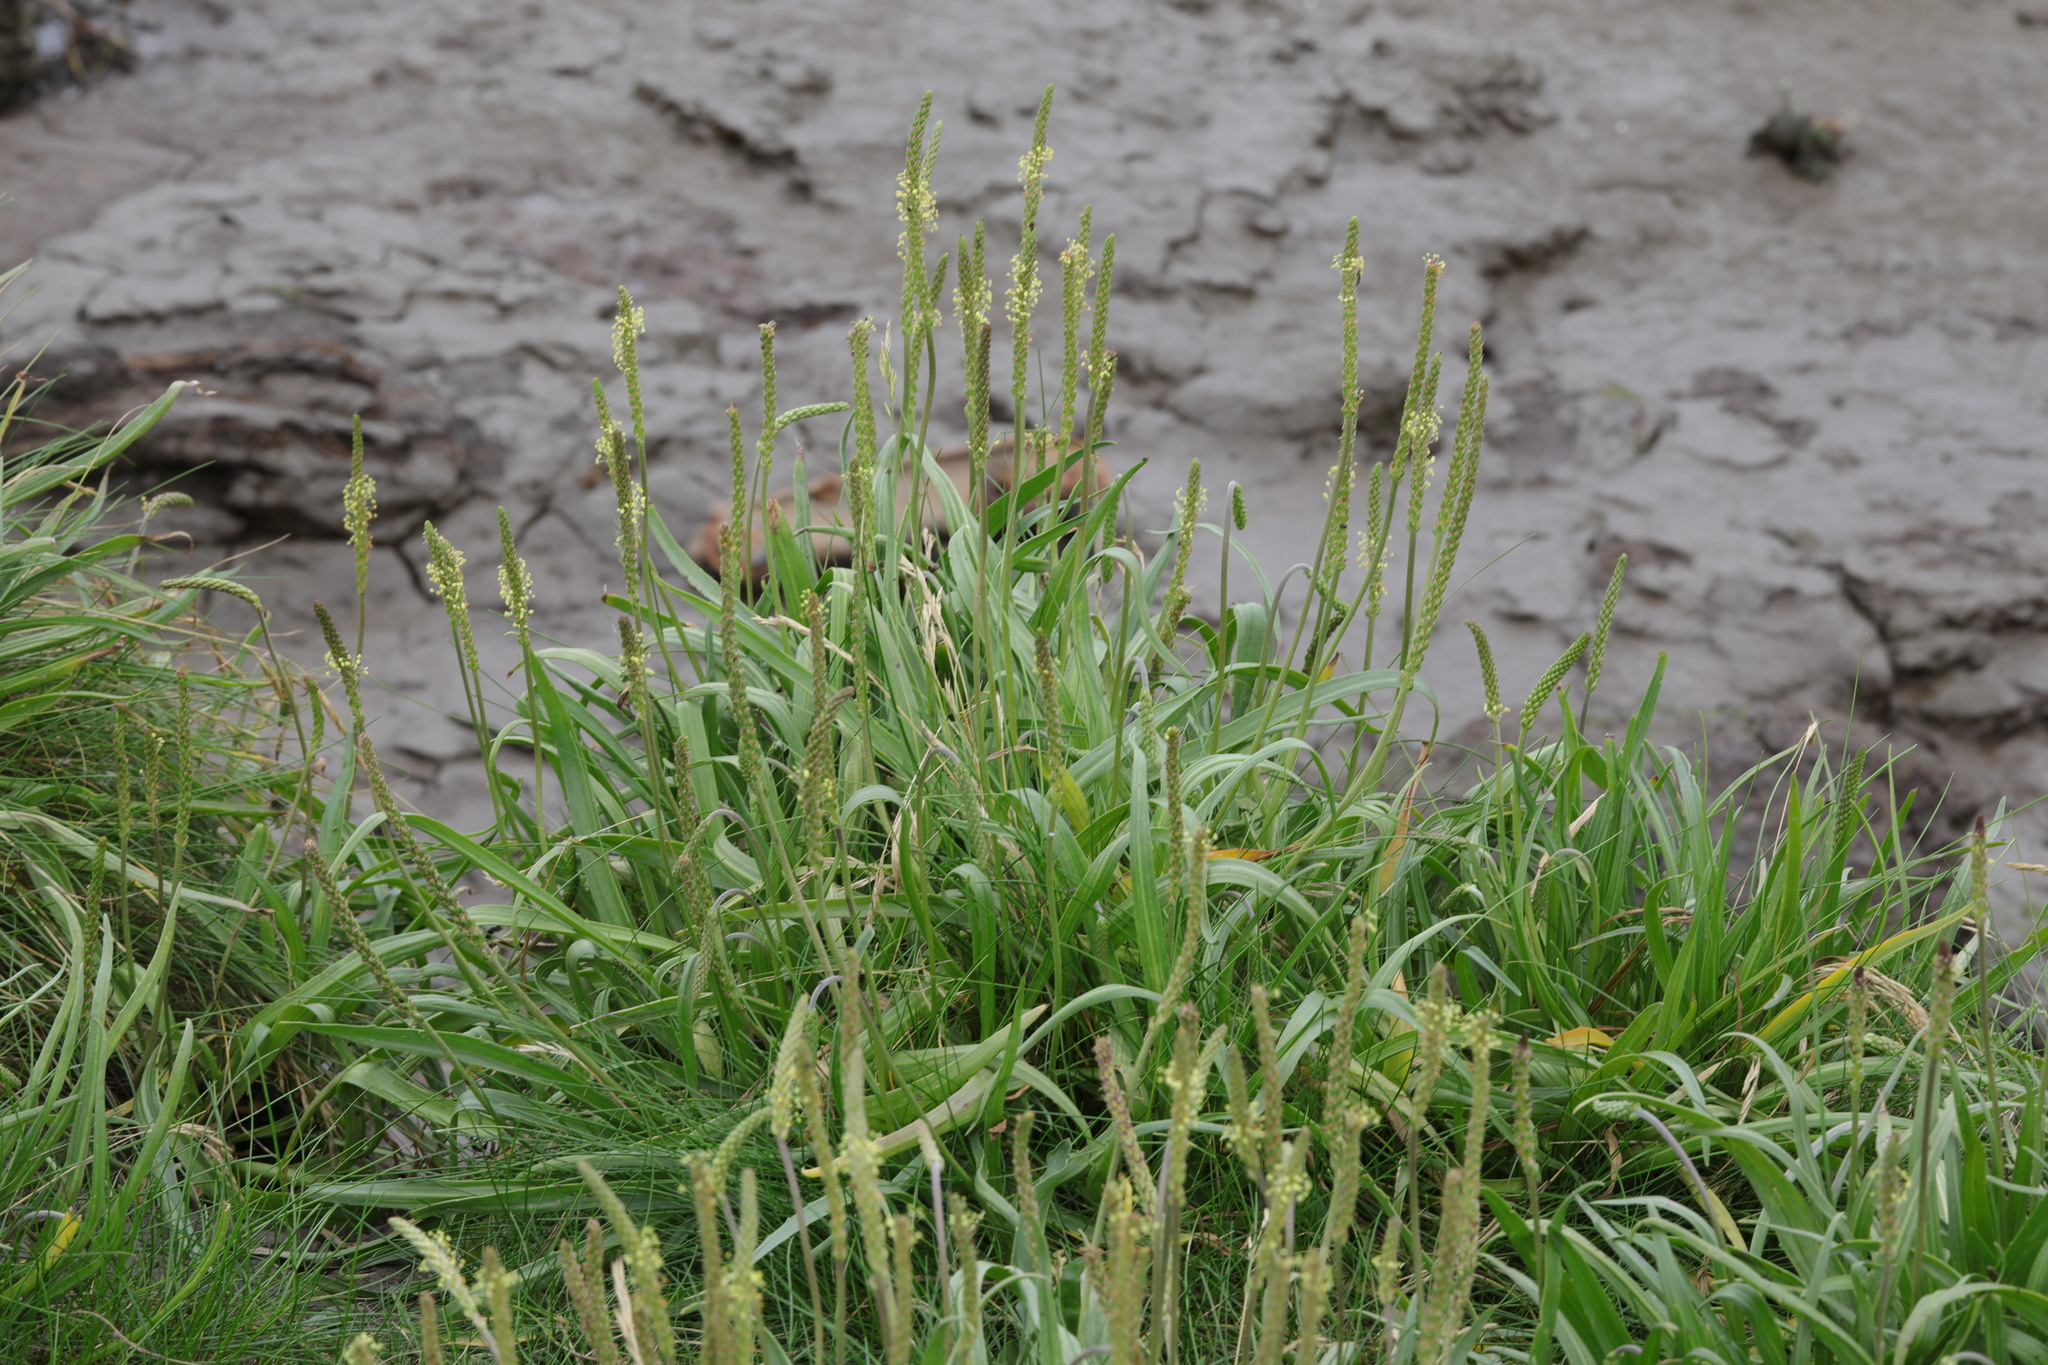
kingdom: Plantae
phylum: Tracheophyta
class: Magnoliopsida
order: Lamiales
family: Plantaginaceae
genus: Plantago
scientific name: Plantago maritima
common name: Sea plantain
